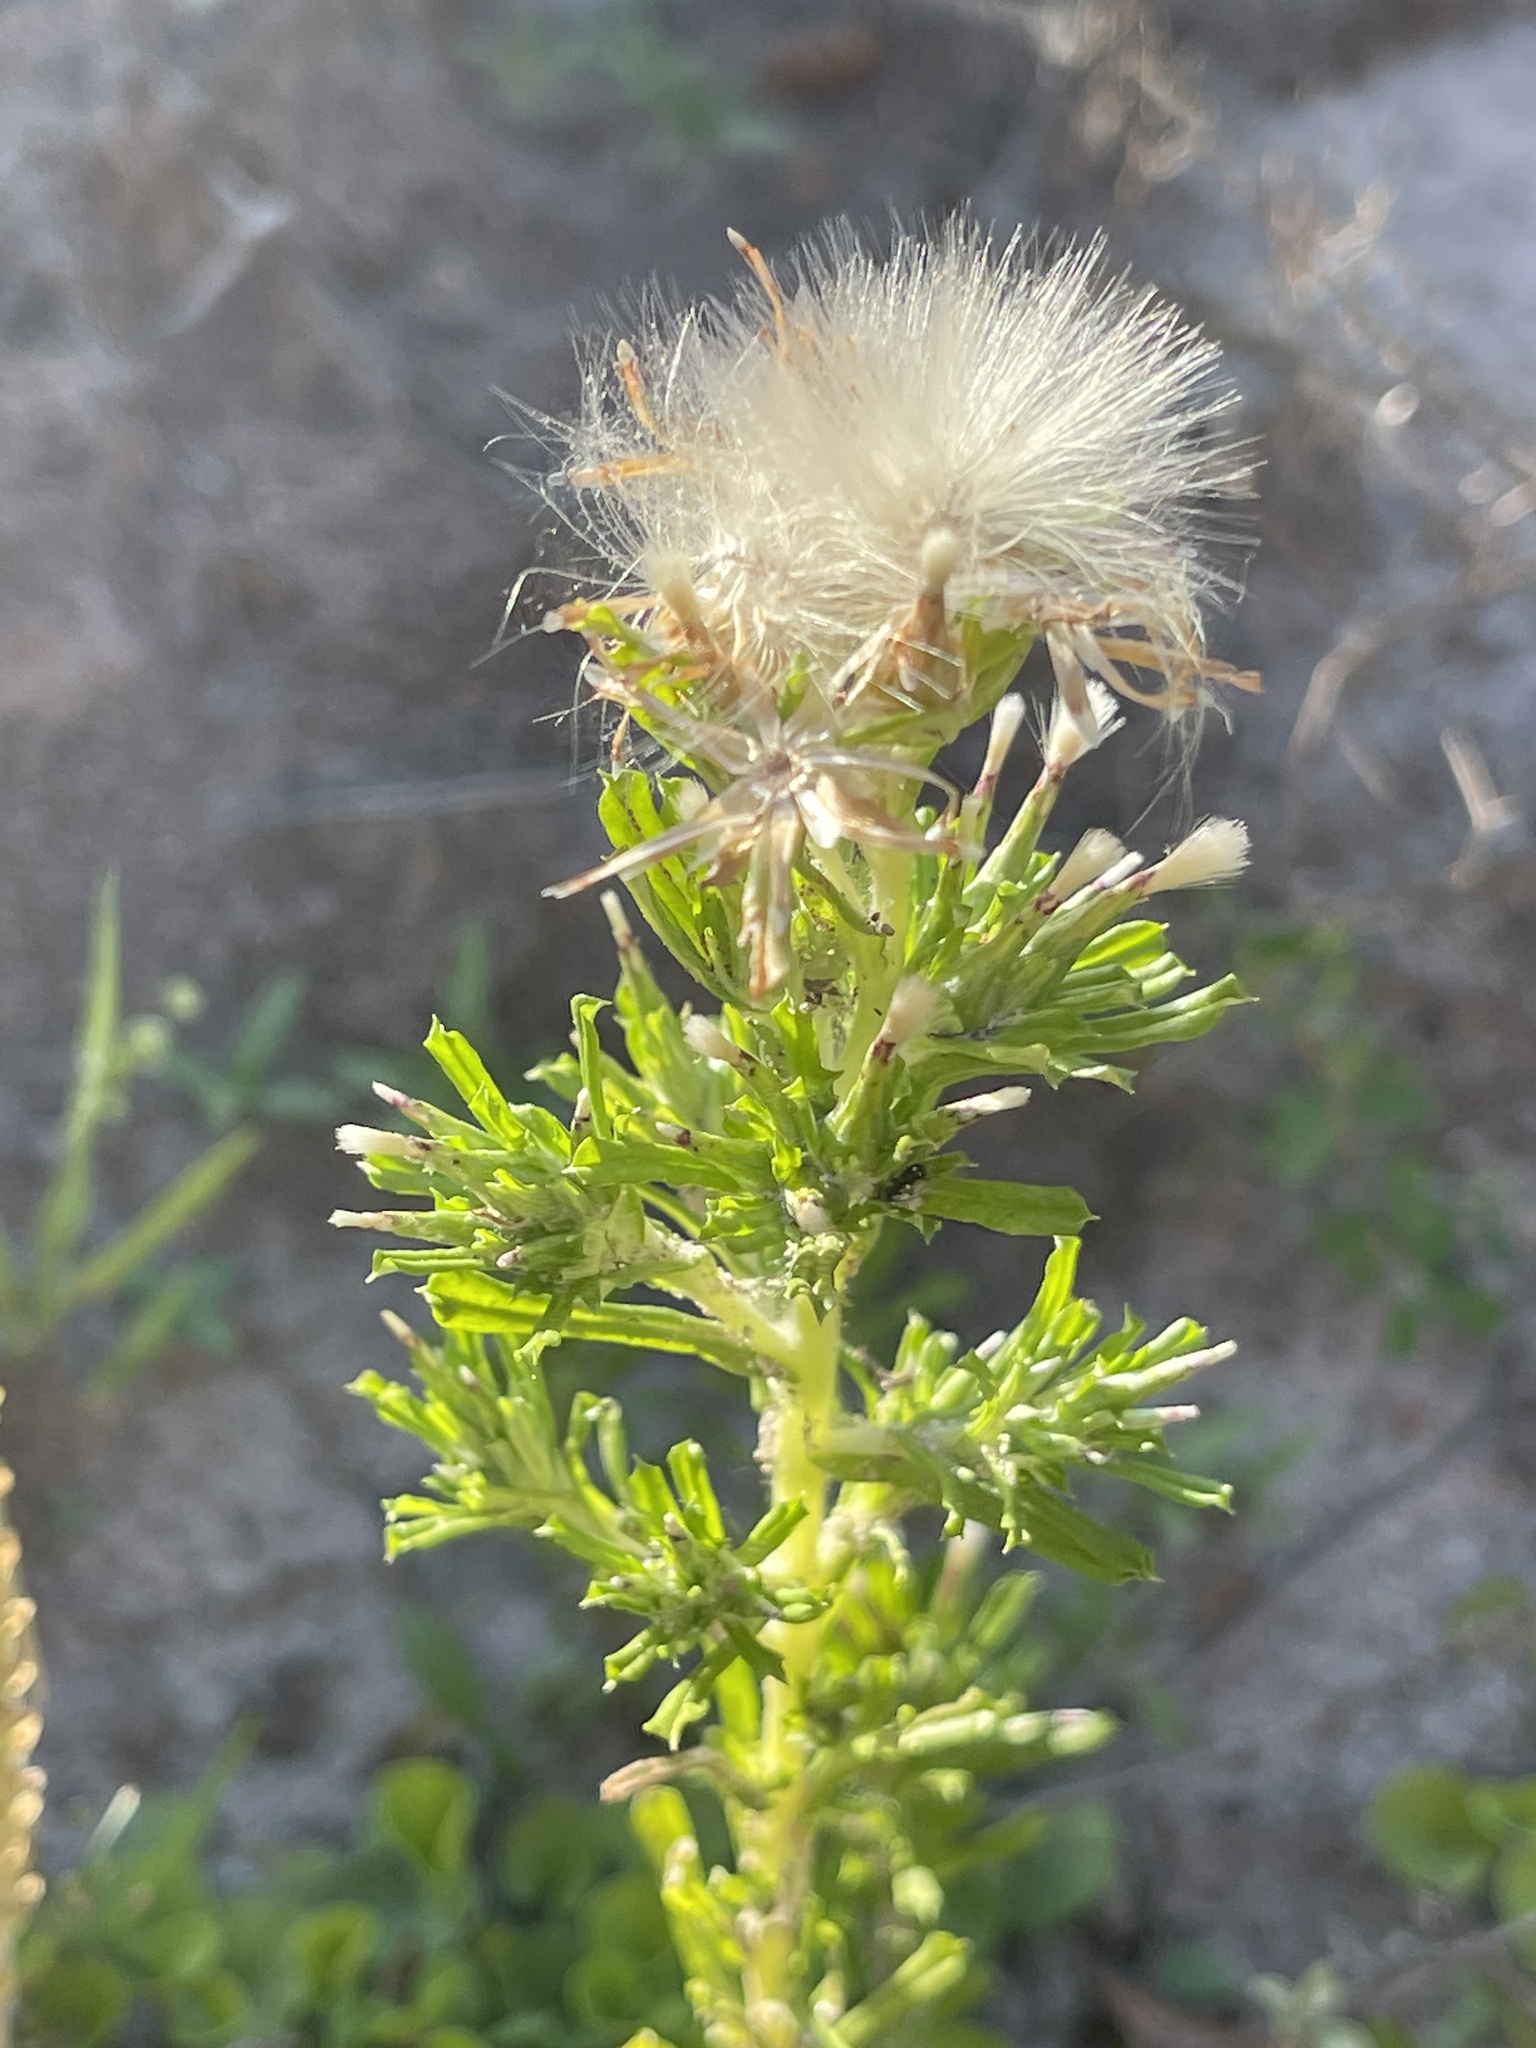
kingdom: Plantae
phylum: Tracheophyta
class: Magnoliopsida
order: Asterales
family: Asteraceae
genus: Facelis
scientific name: Facelis retusa
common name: Annual trampweed
